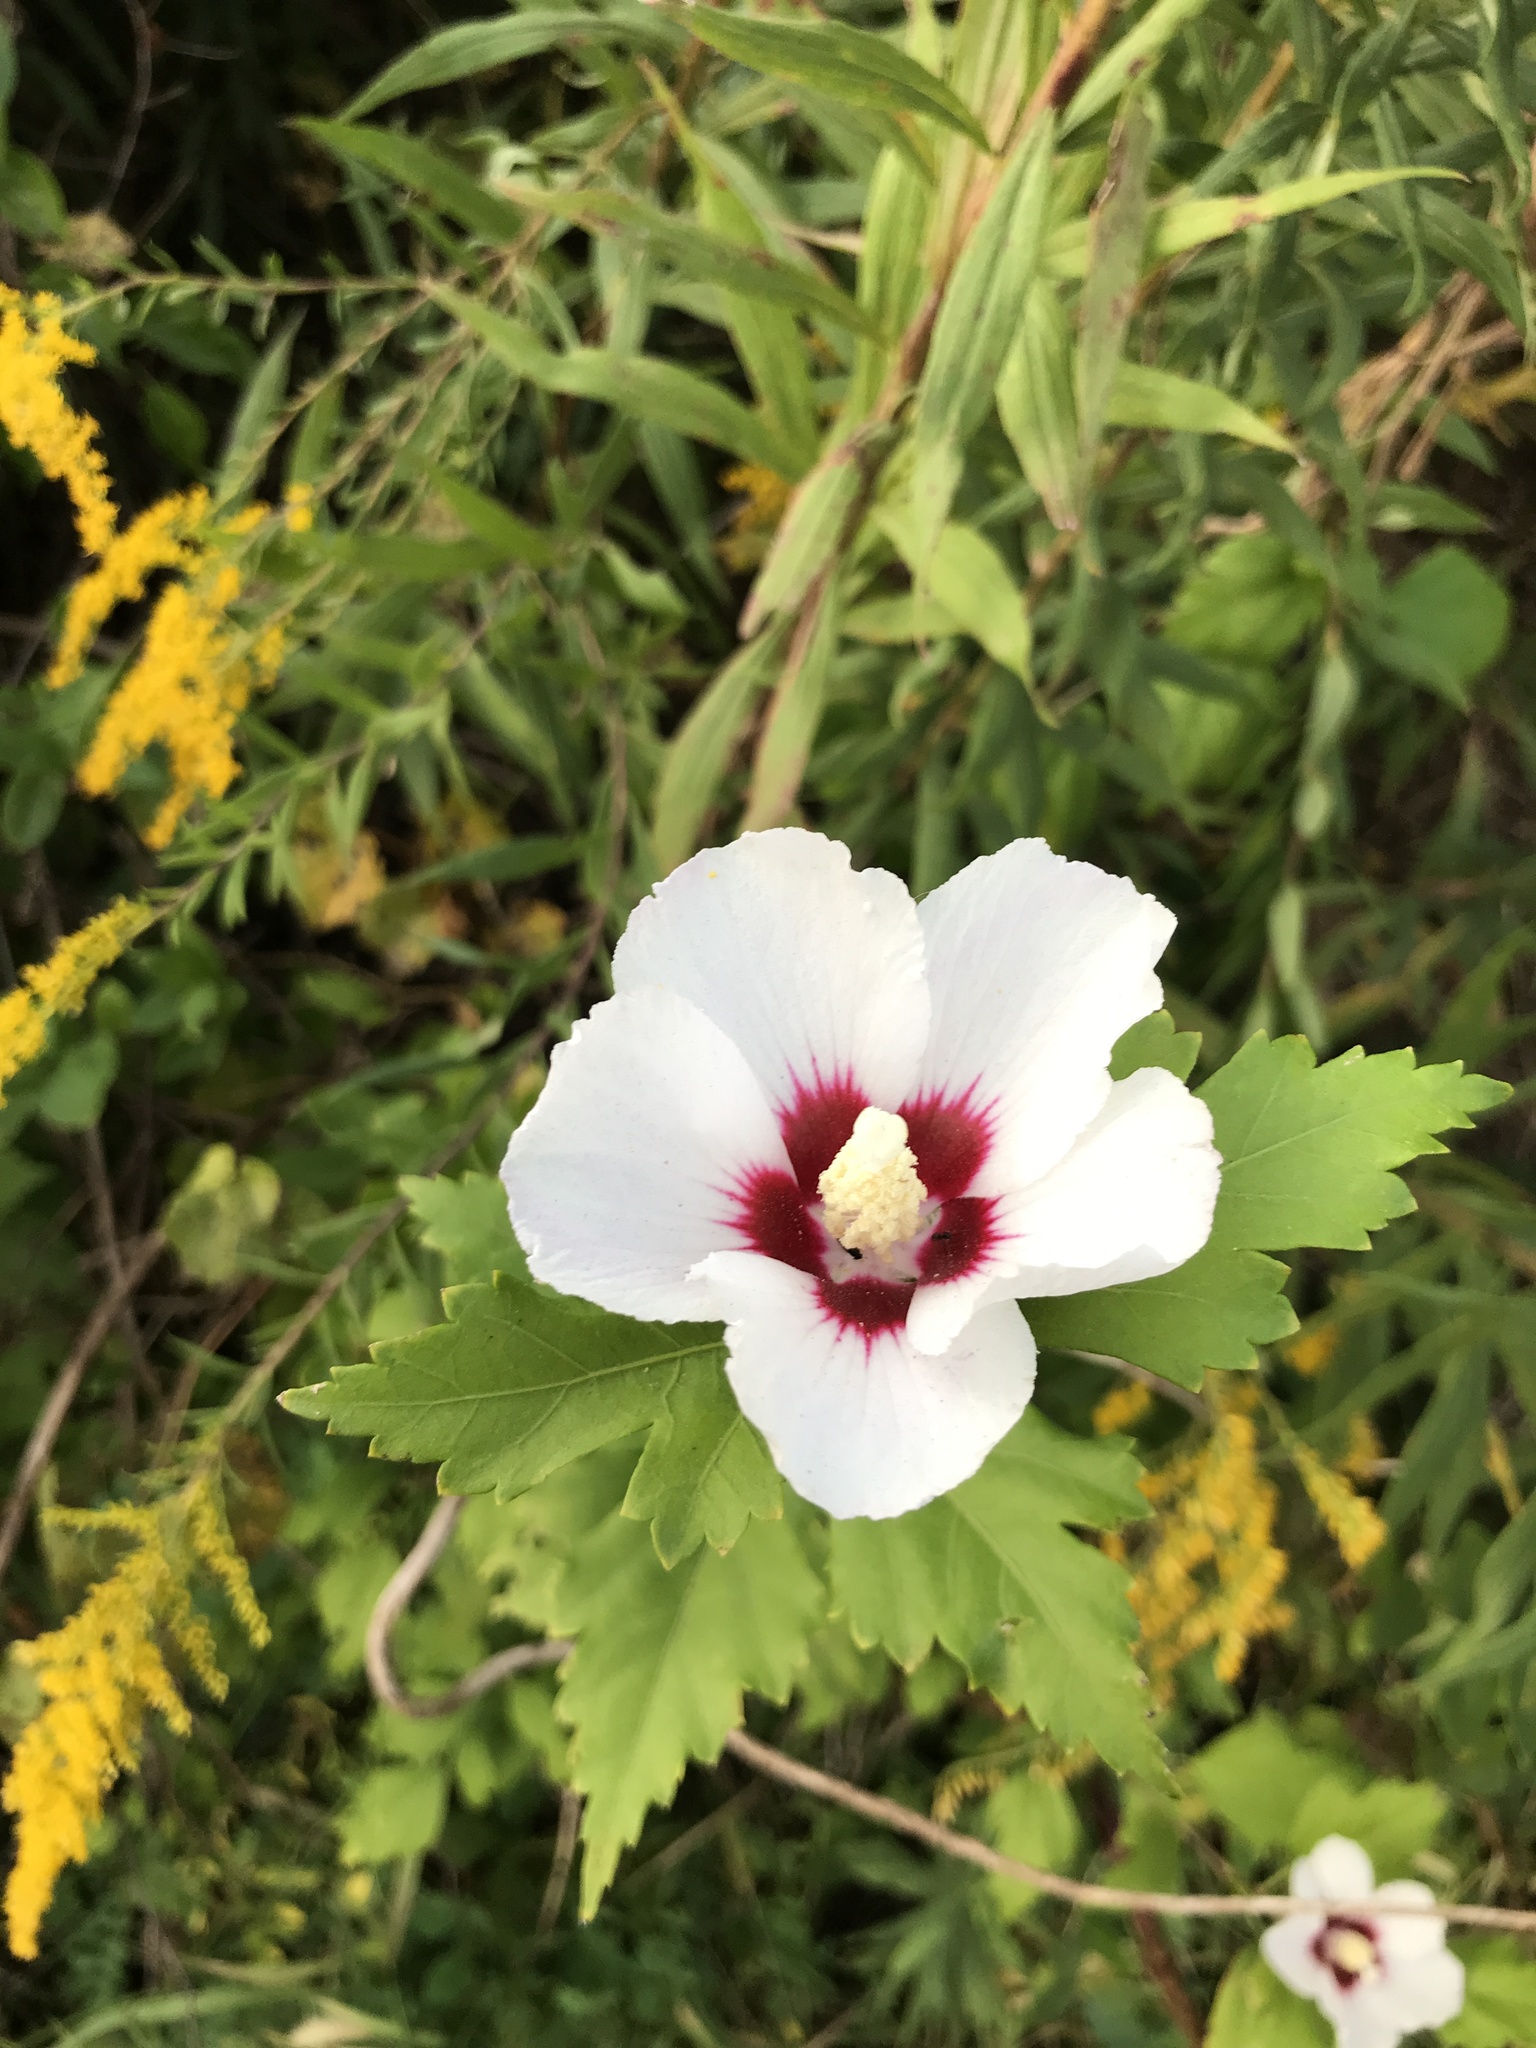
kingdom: Plantae
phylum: Tracheophyta
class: Magnoliopsida
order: Malvales
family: Malvaceae
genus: Hibiscus
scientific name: Hibiscus syriacus
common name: Syrian ketmia
